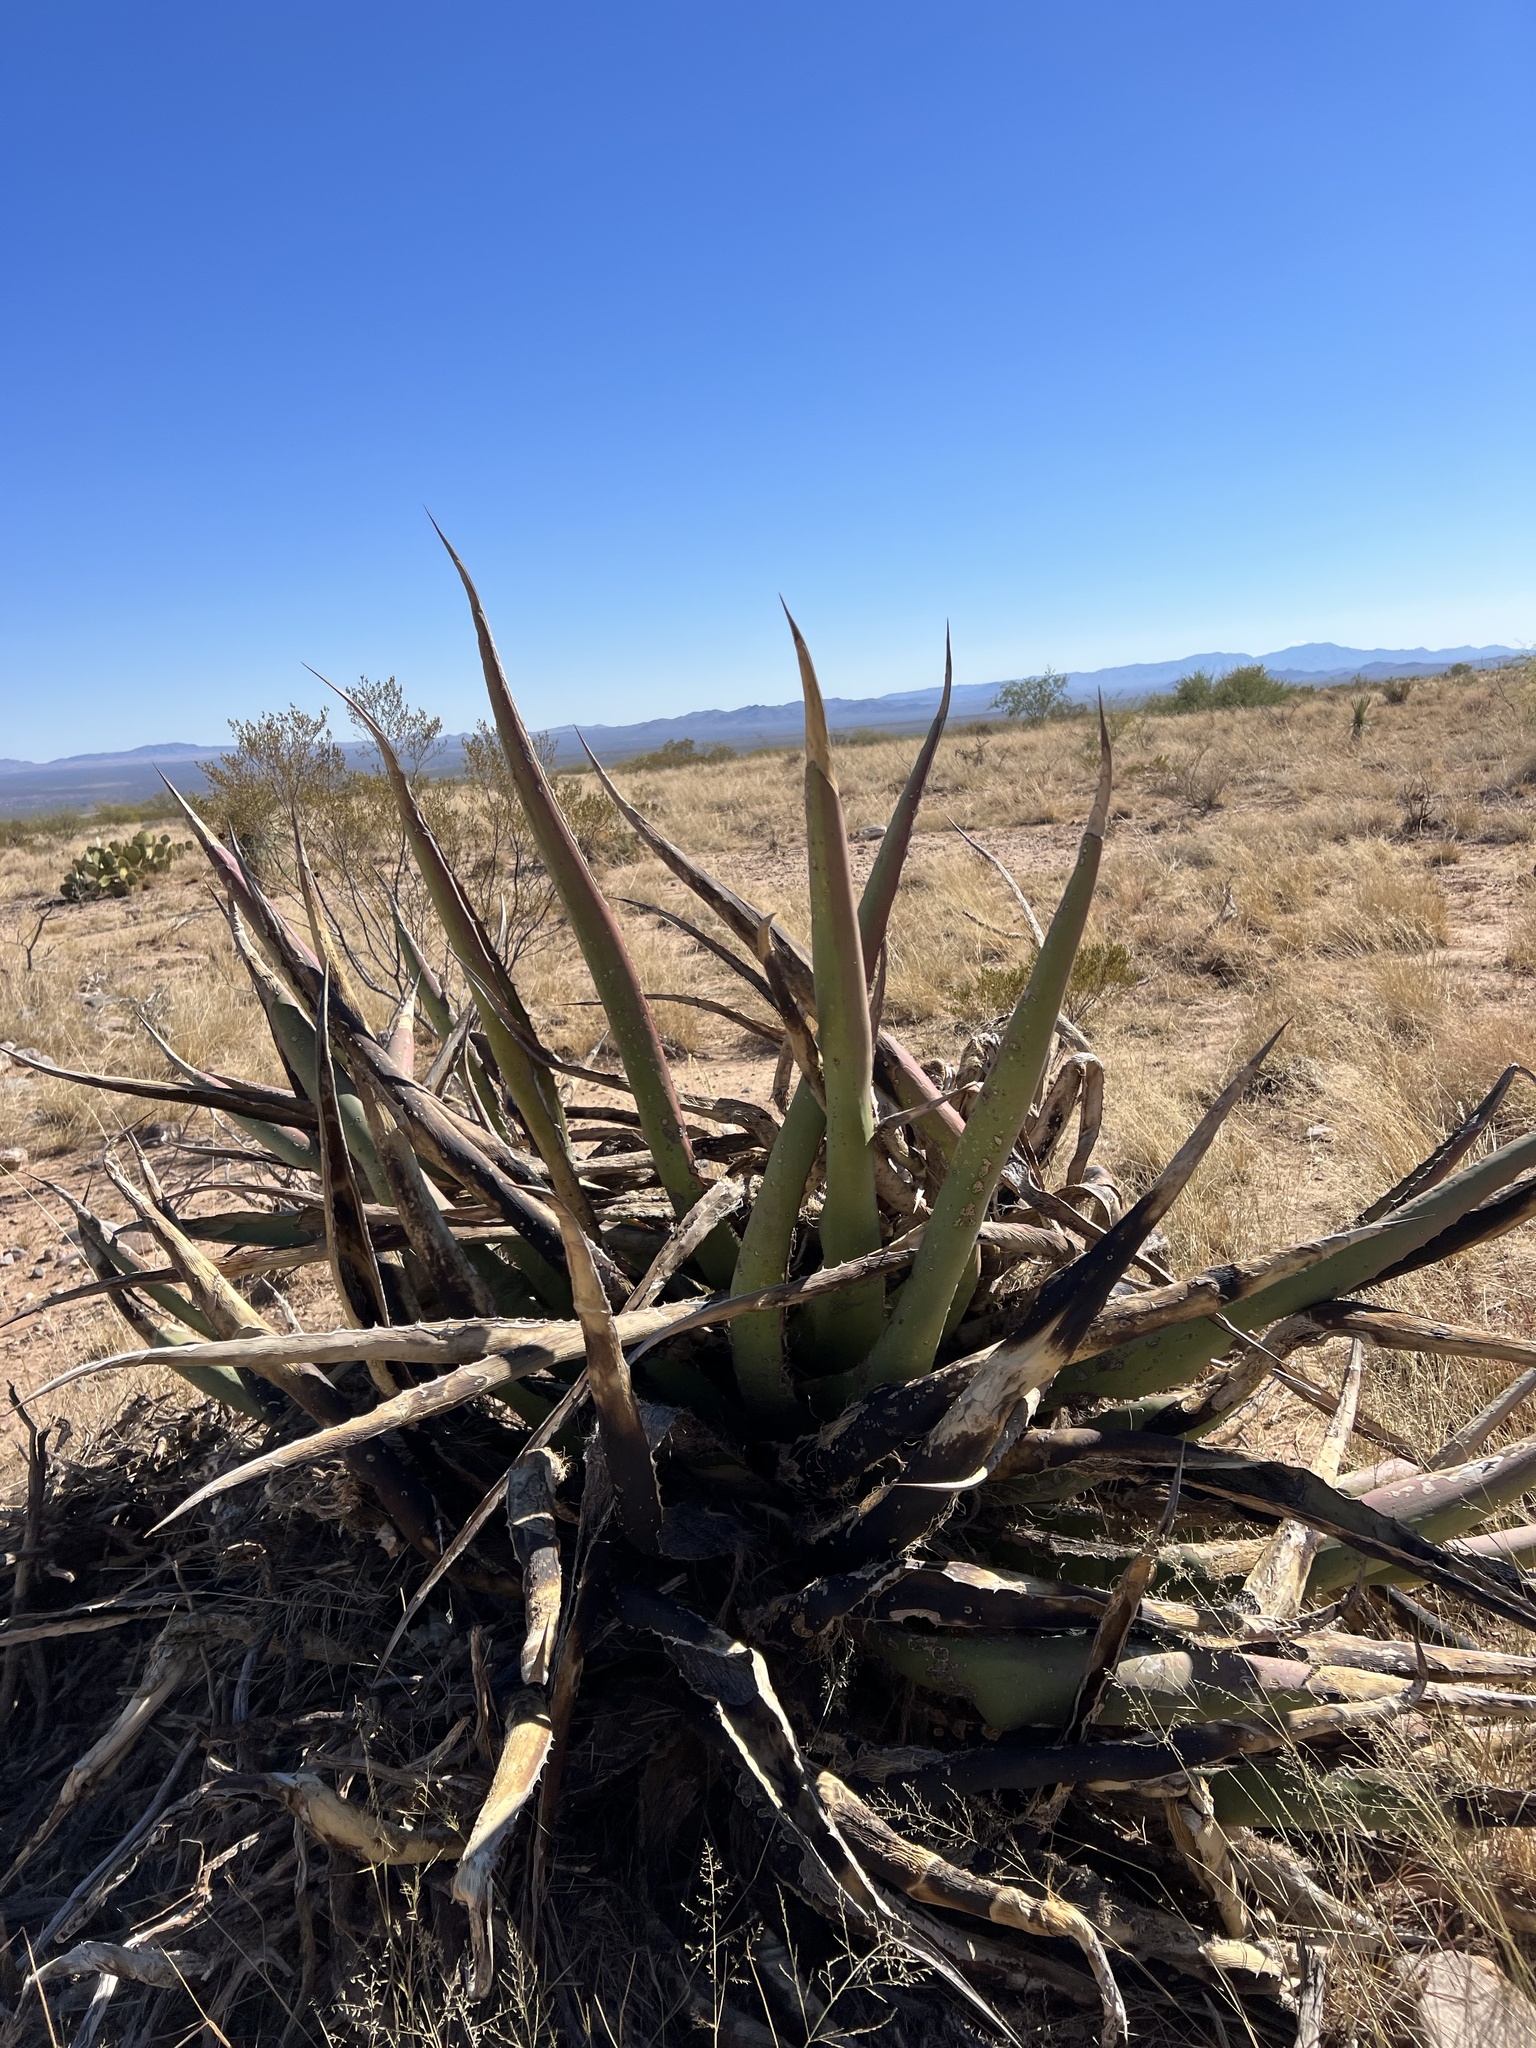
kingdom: Plantae
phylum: Tracheophyta
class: Liliopsida
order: Asparagales
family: Asparagaceae
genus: Agave
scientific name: Agave palmeri
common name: Palmer agave
